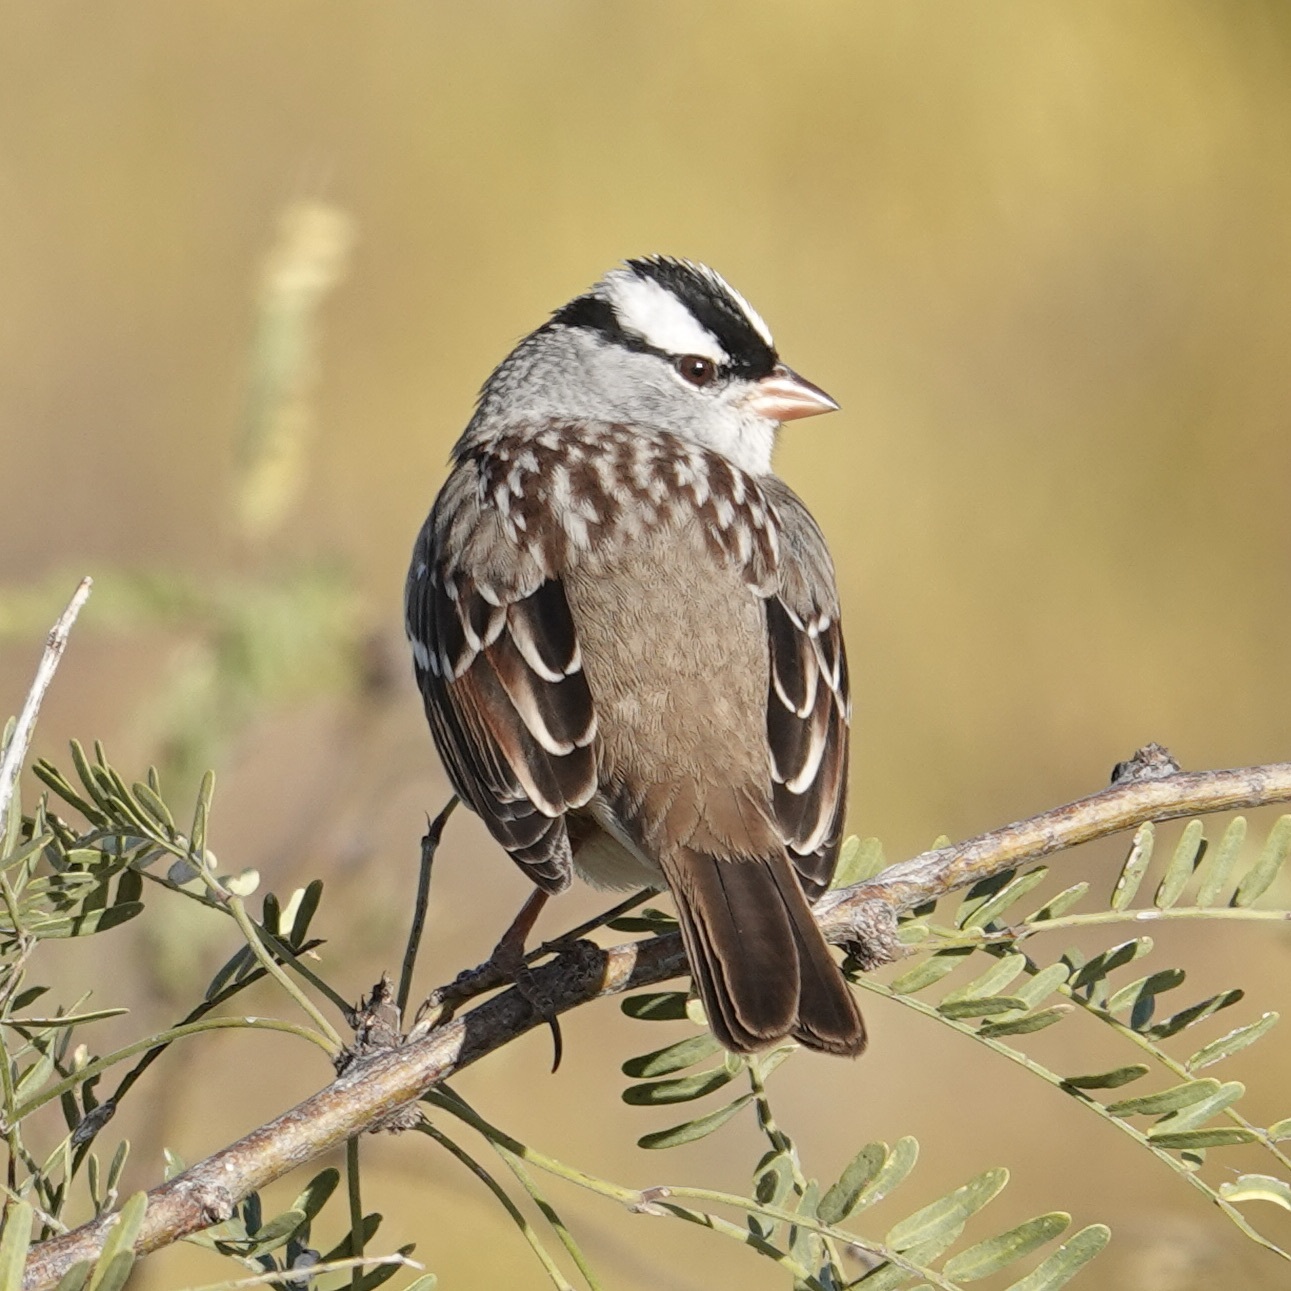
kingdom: Animalia
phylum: Chordata
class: Aves
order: Passeriformes
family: Passerellidae
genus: Zonotrichia
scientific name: Zonotrichia leucophrys
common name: White-crowned sparrow
